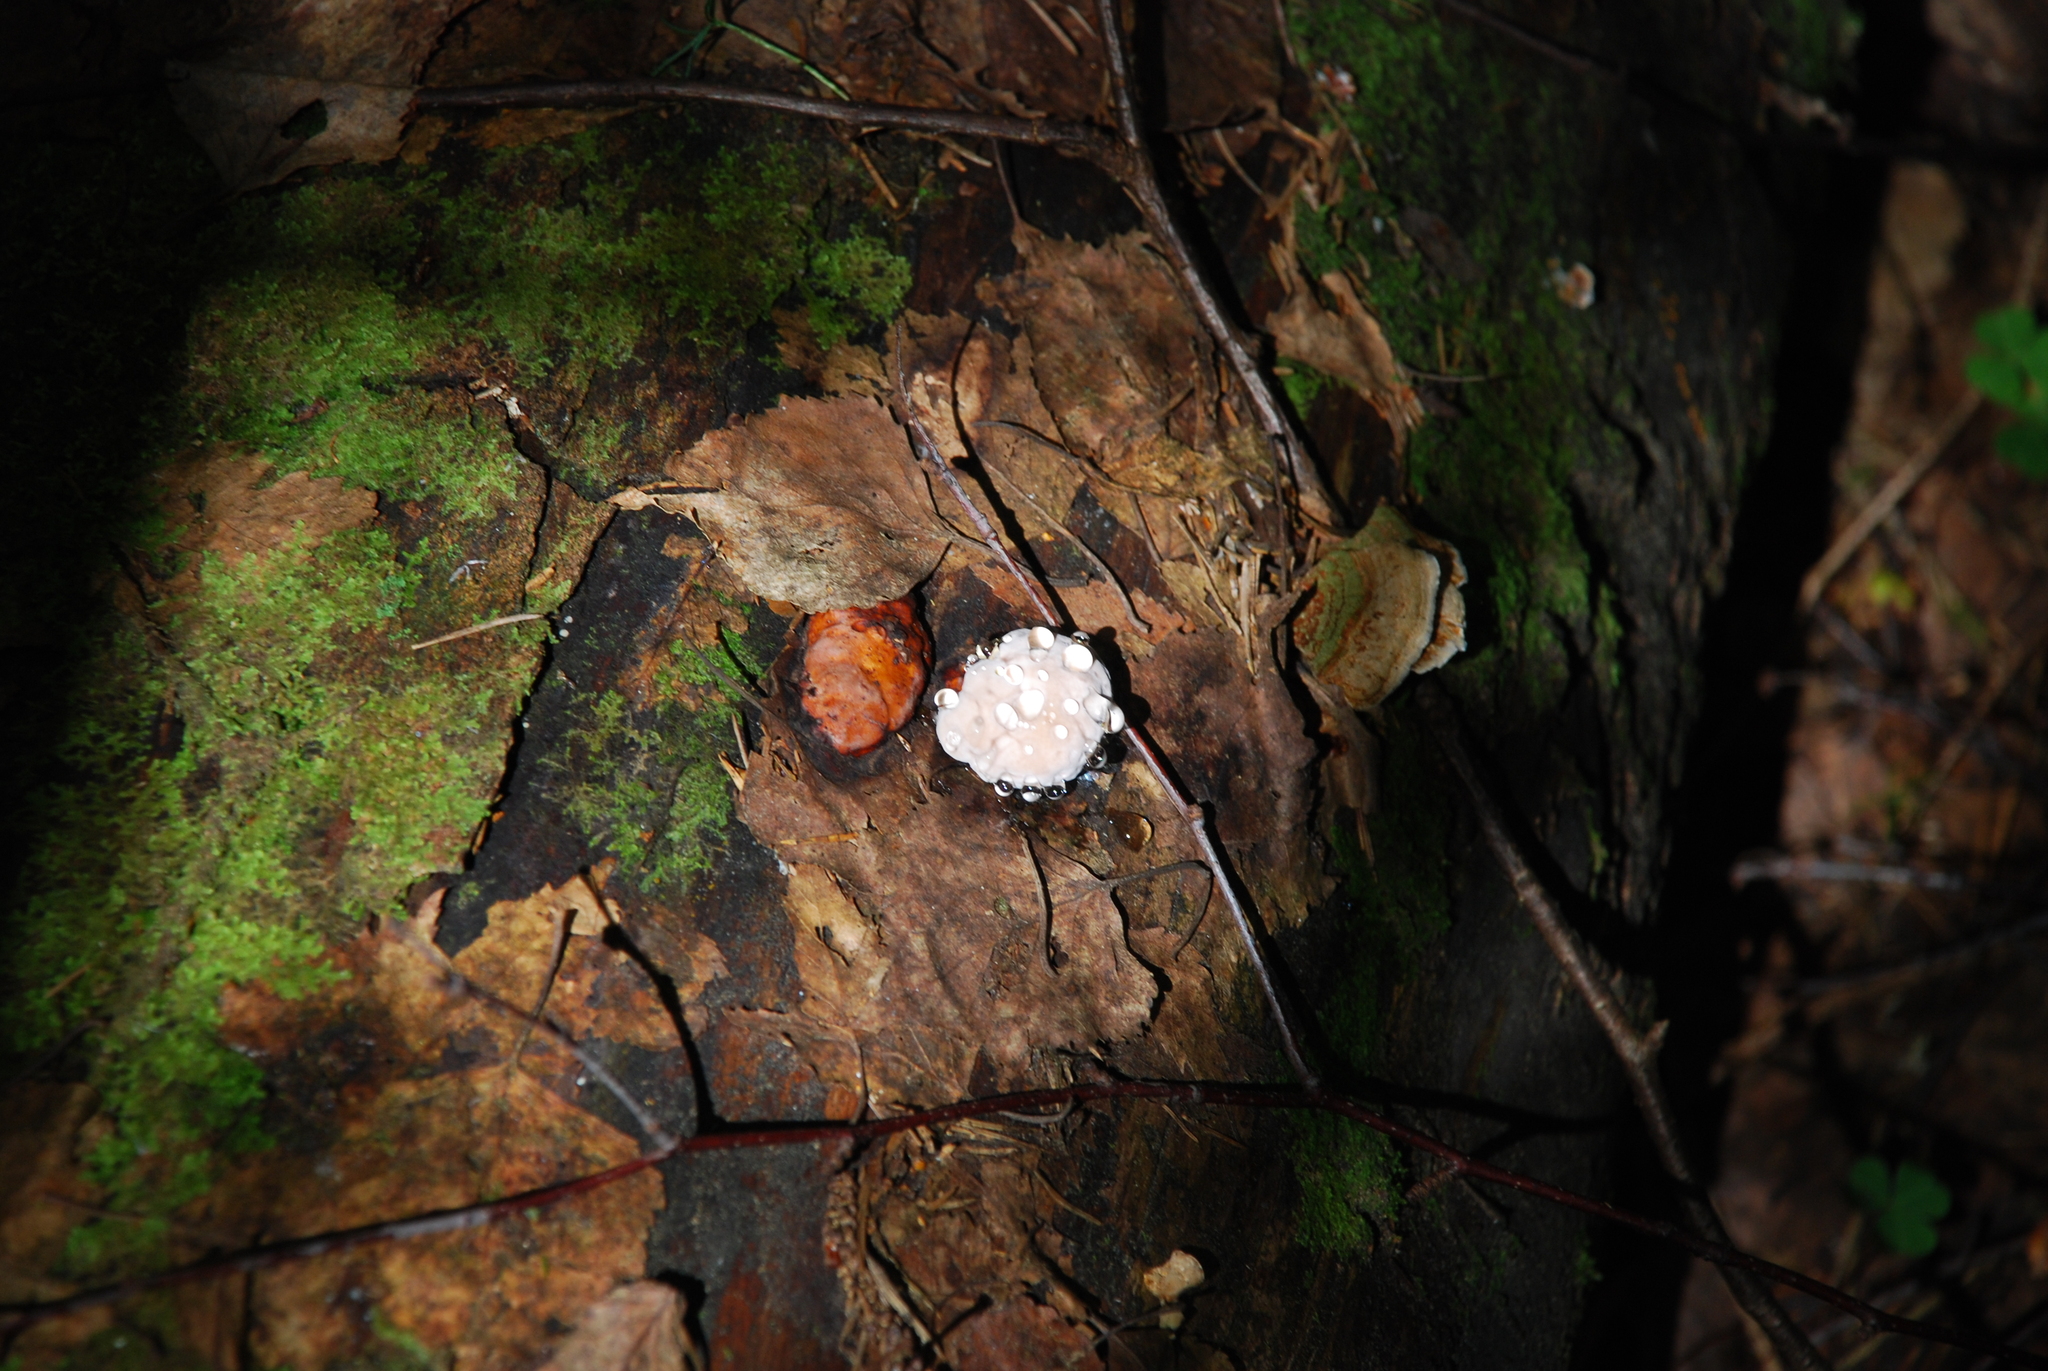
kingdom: Fungi
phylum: Basidiomycota
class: Agaricomycetes
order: Polyporales
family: Fomitopsidaceae
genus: Fomitopsis
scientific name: Fomitopsis pinicola
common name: Red-belted bracket
